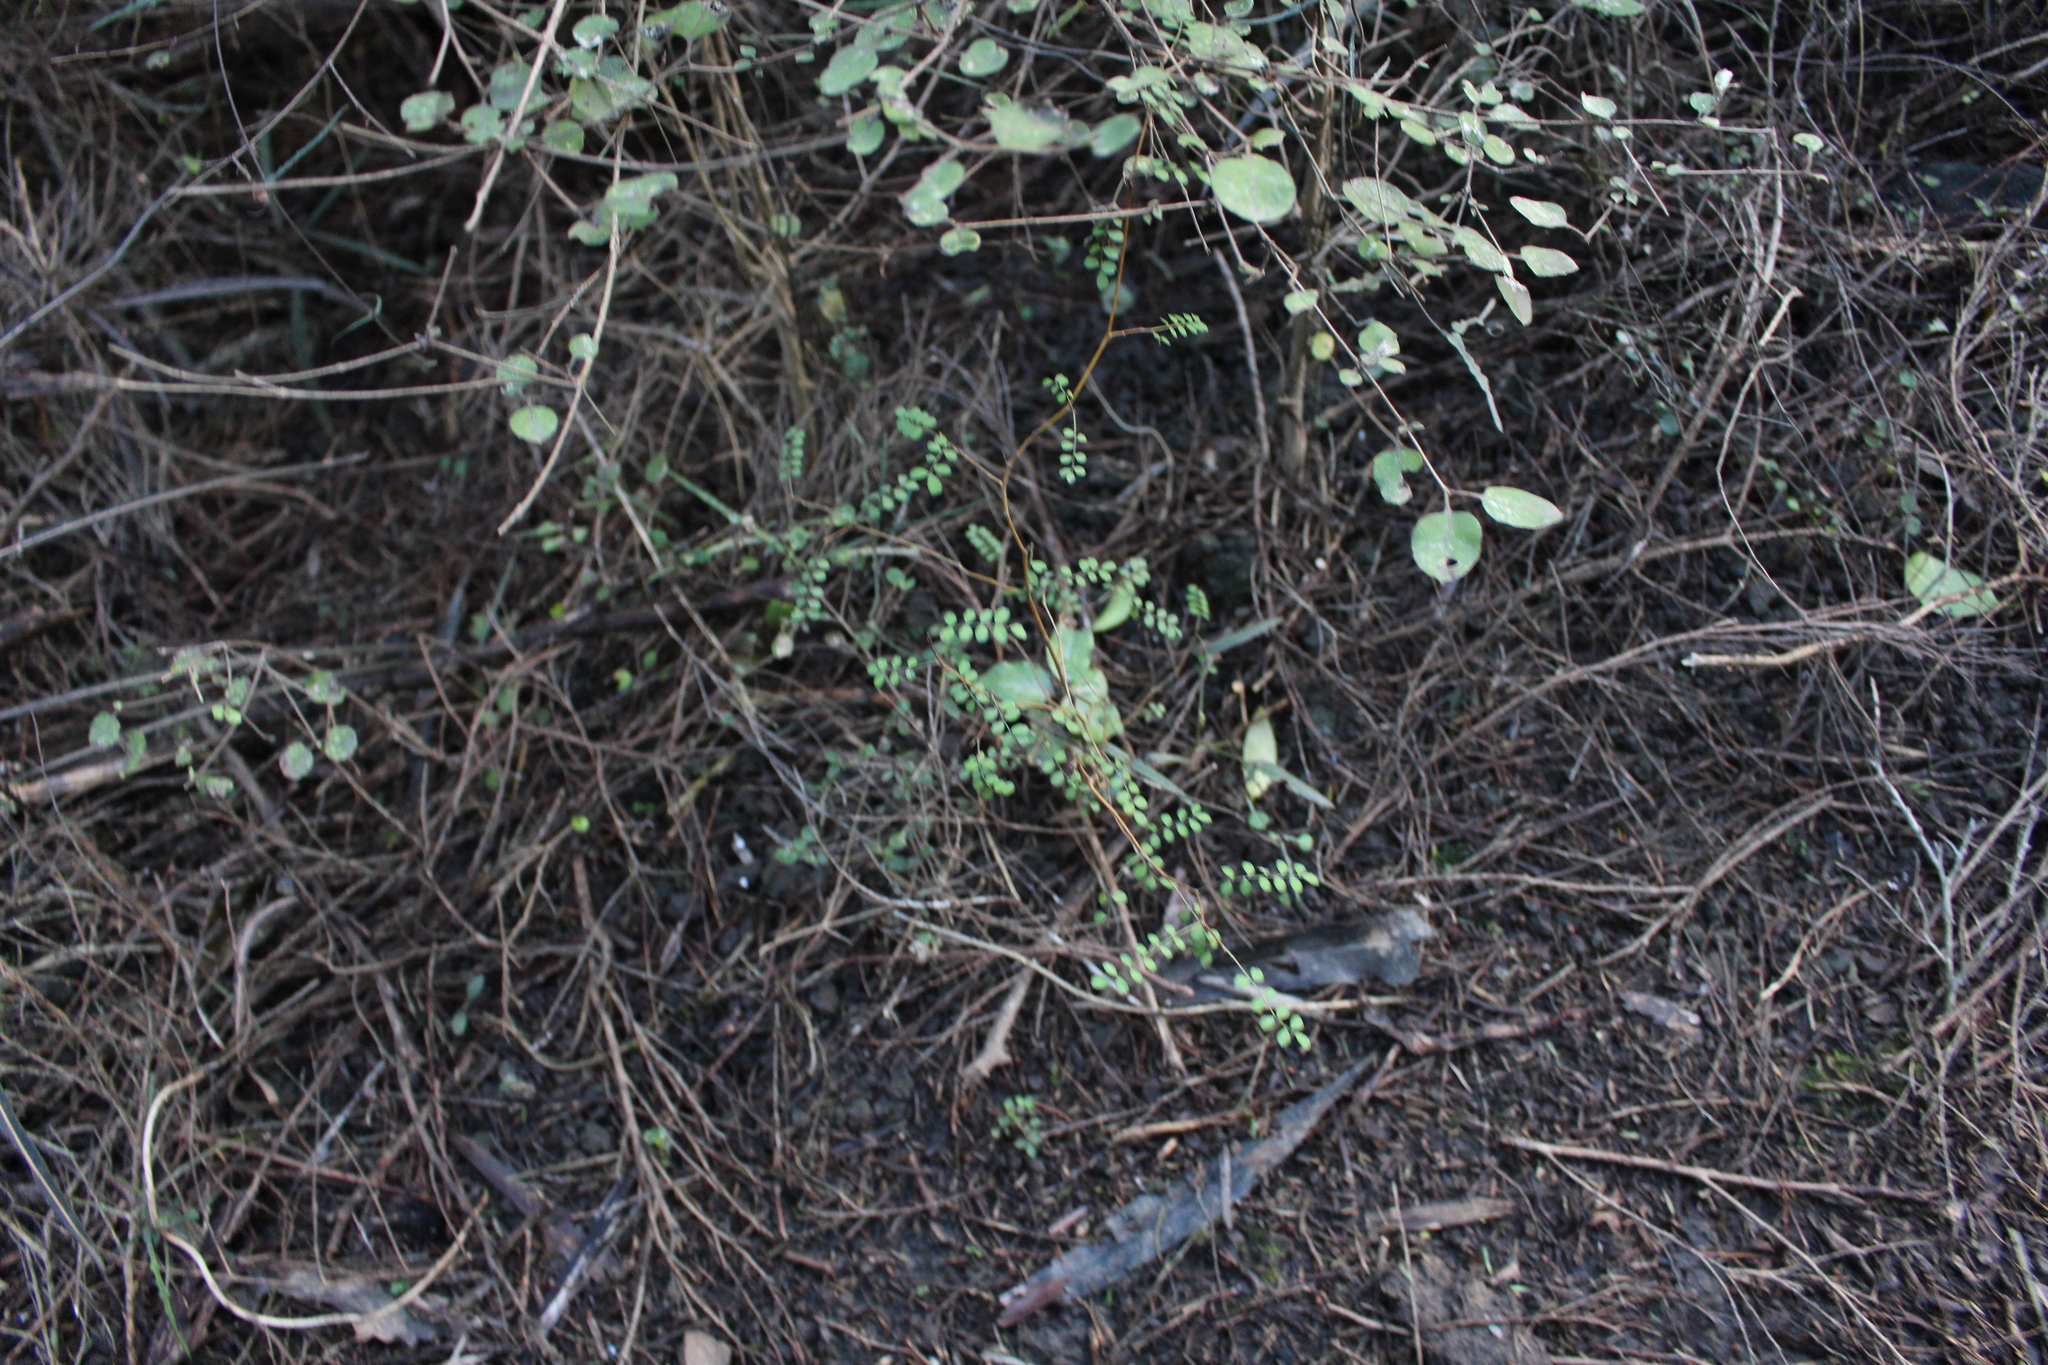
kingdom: Plantae
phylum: Tracheophyta
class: Magnoliopsida
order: Fabales
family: Fabaceae
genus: Sophora
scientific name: Sophora microphylla
